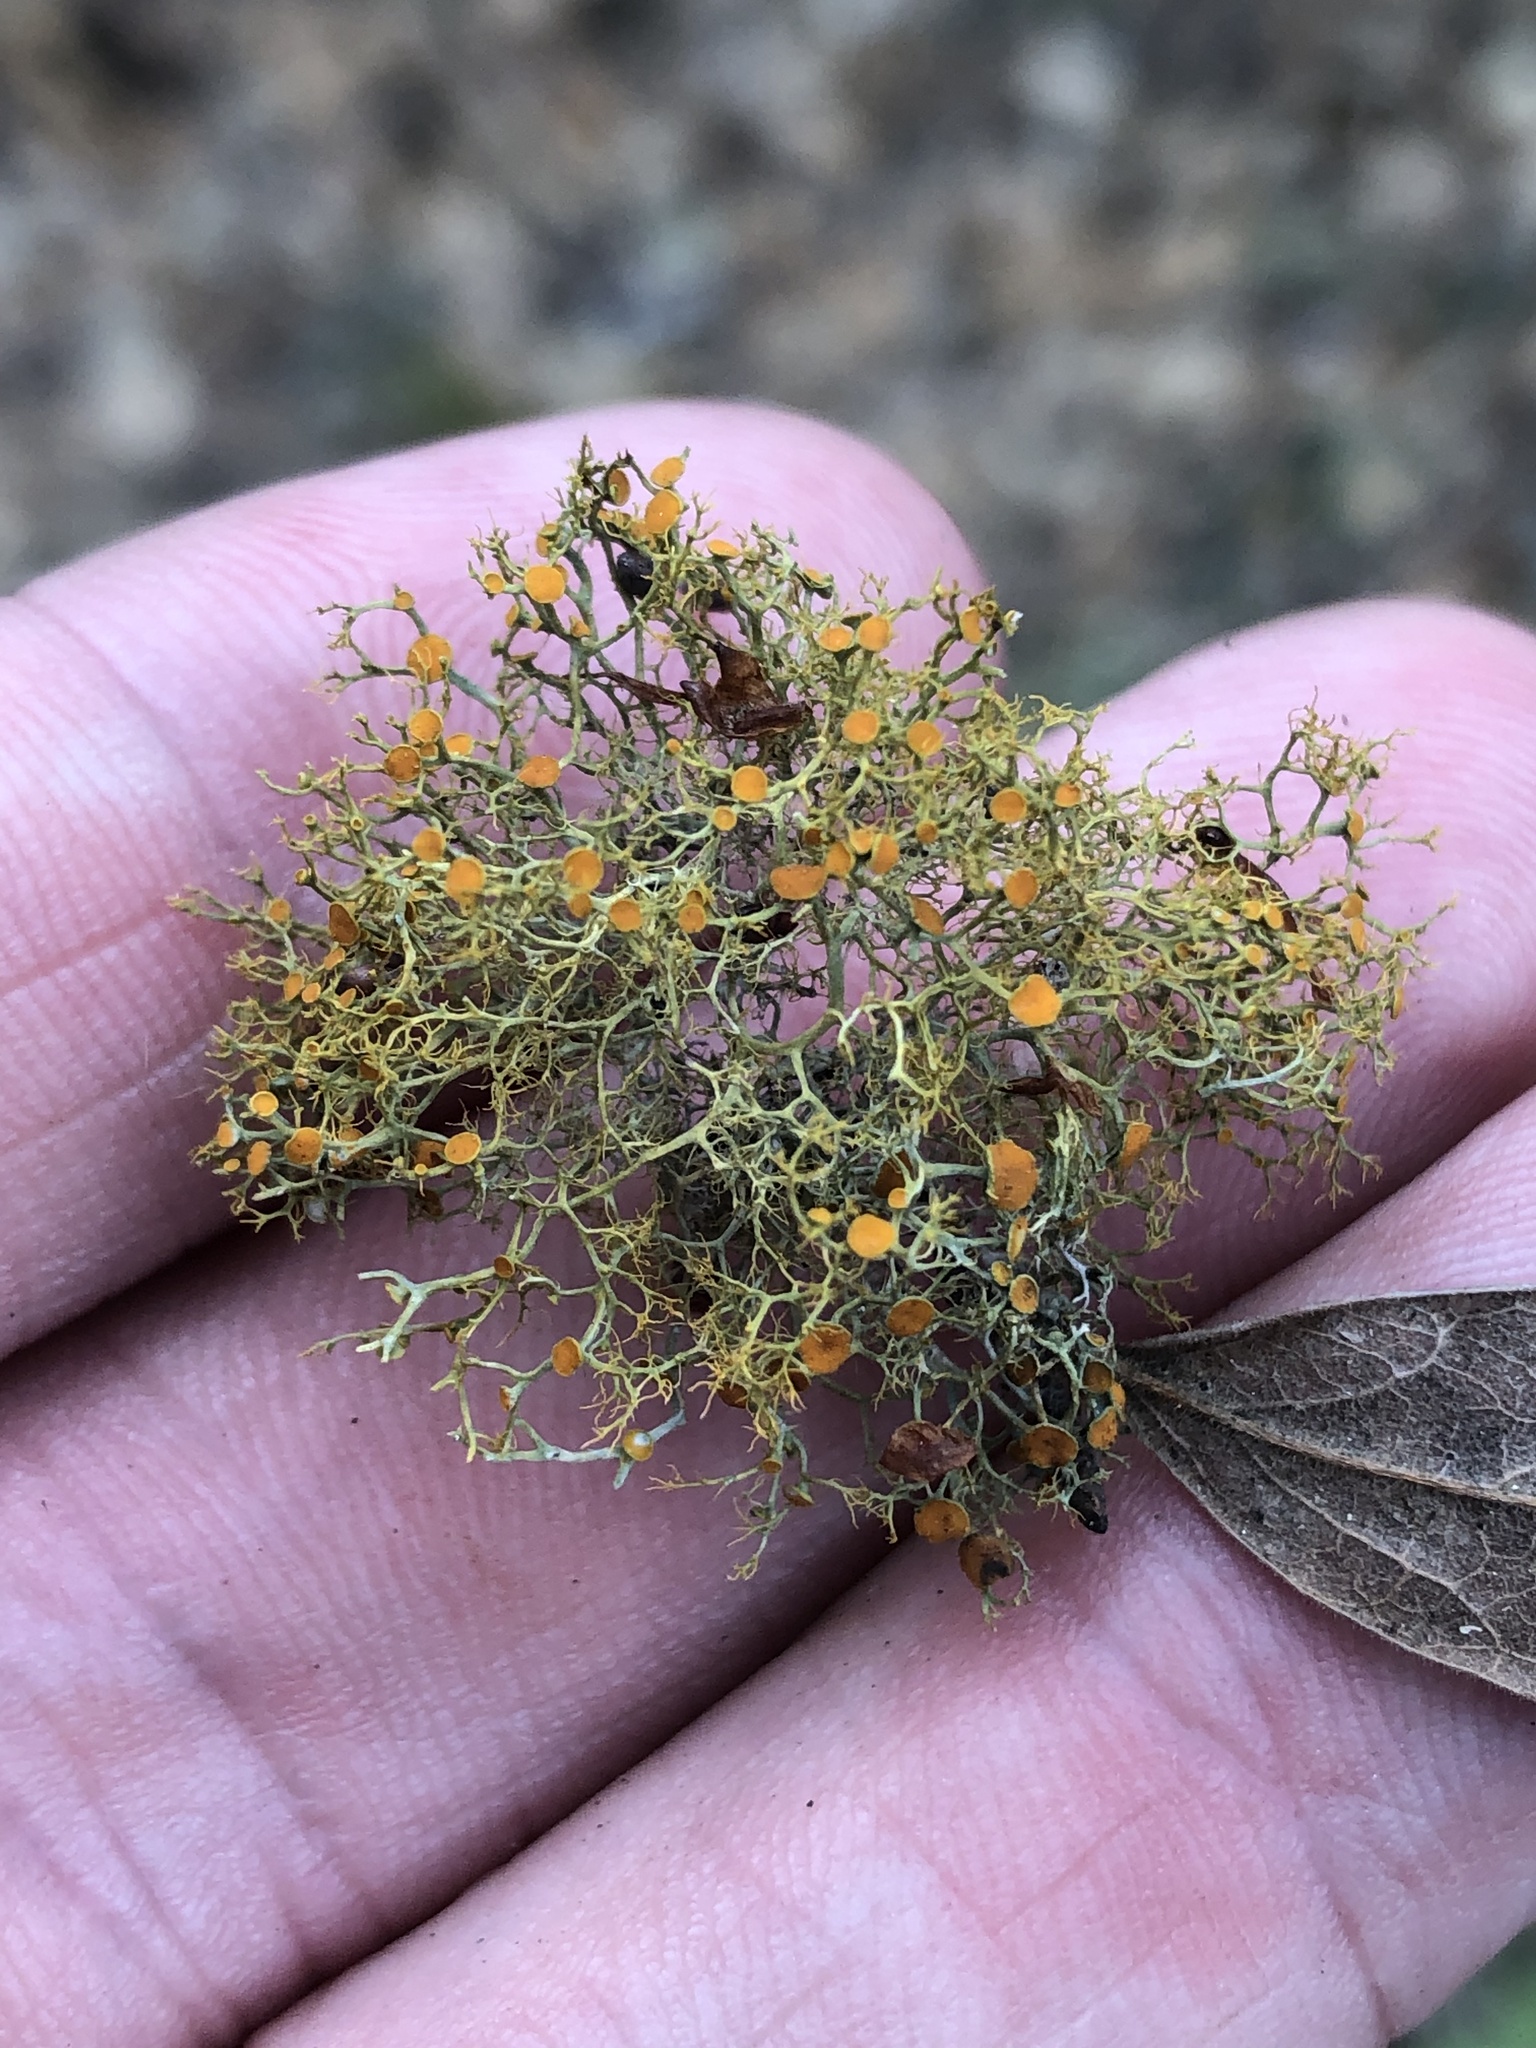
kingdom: Fungi
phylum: Ascomycota
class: Lecanoromycetes
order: Teloschistales
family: Teloschistaceae
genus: Teloschistes
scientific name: Teloschistes exilis
